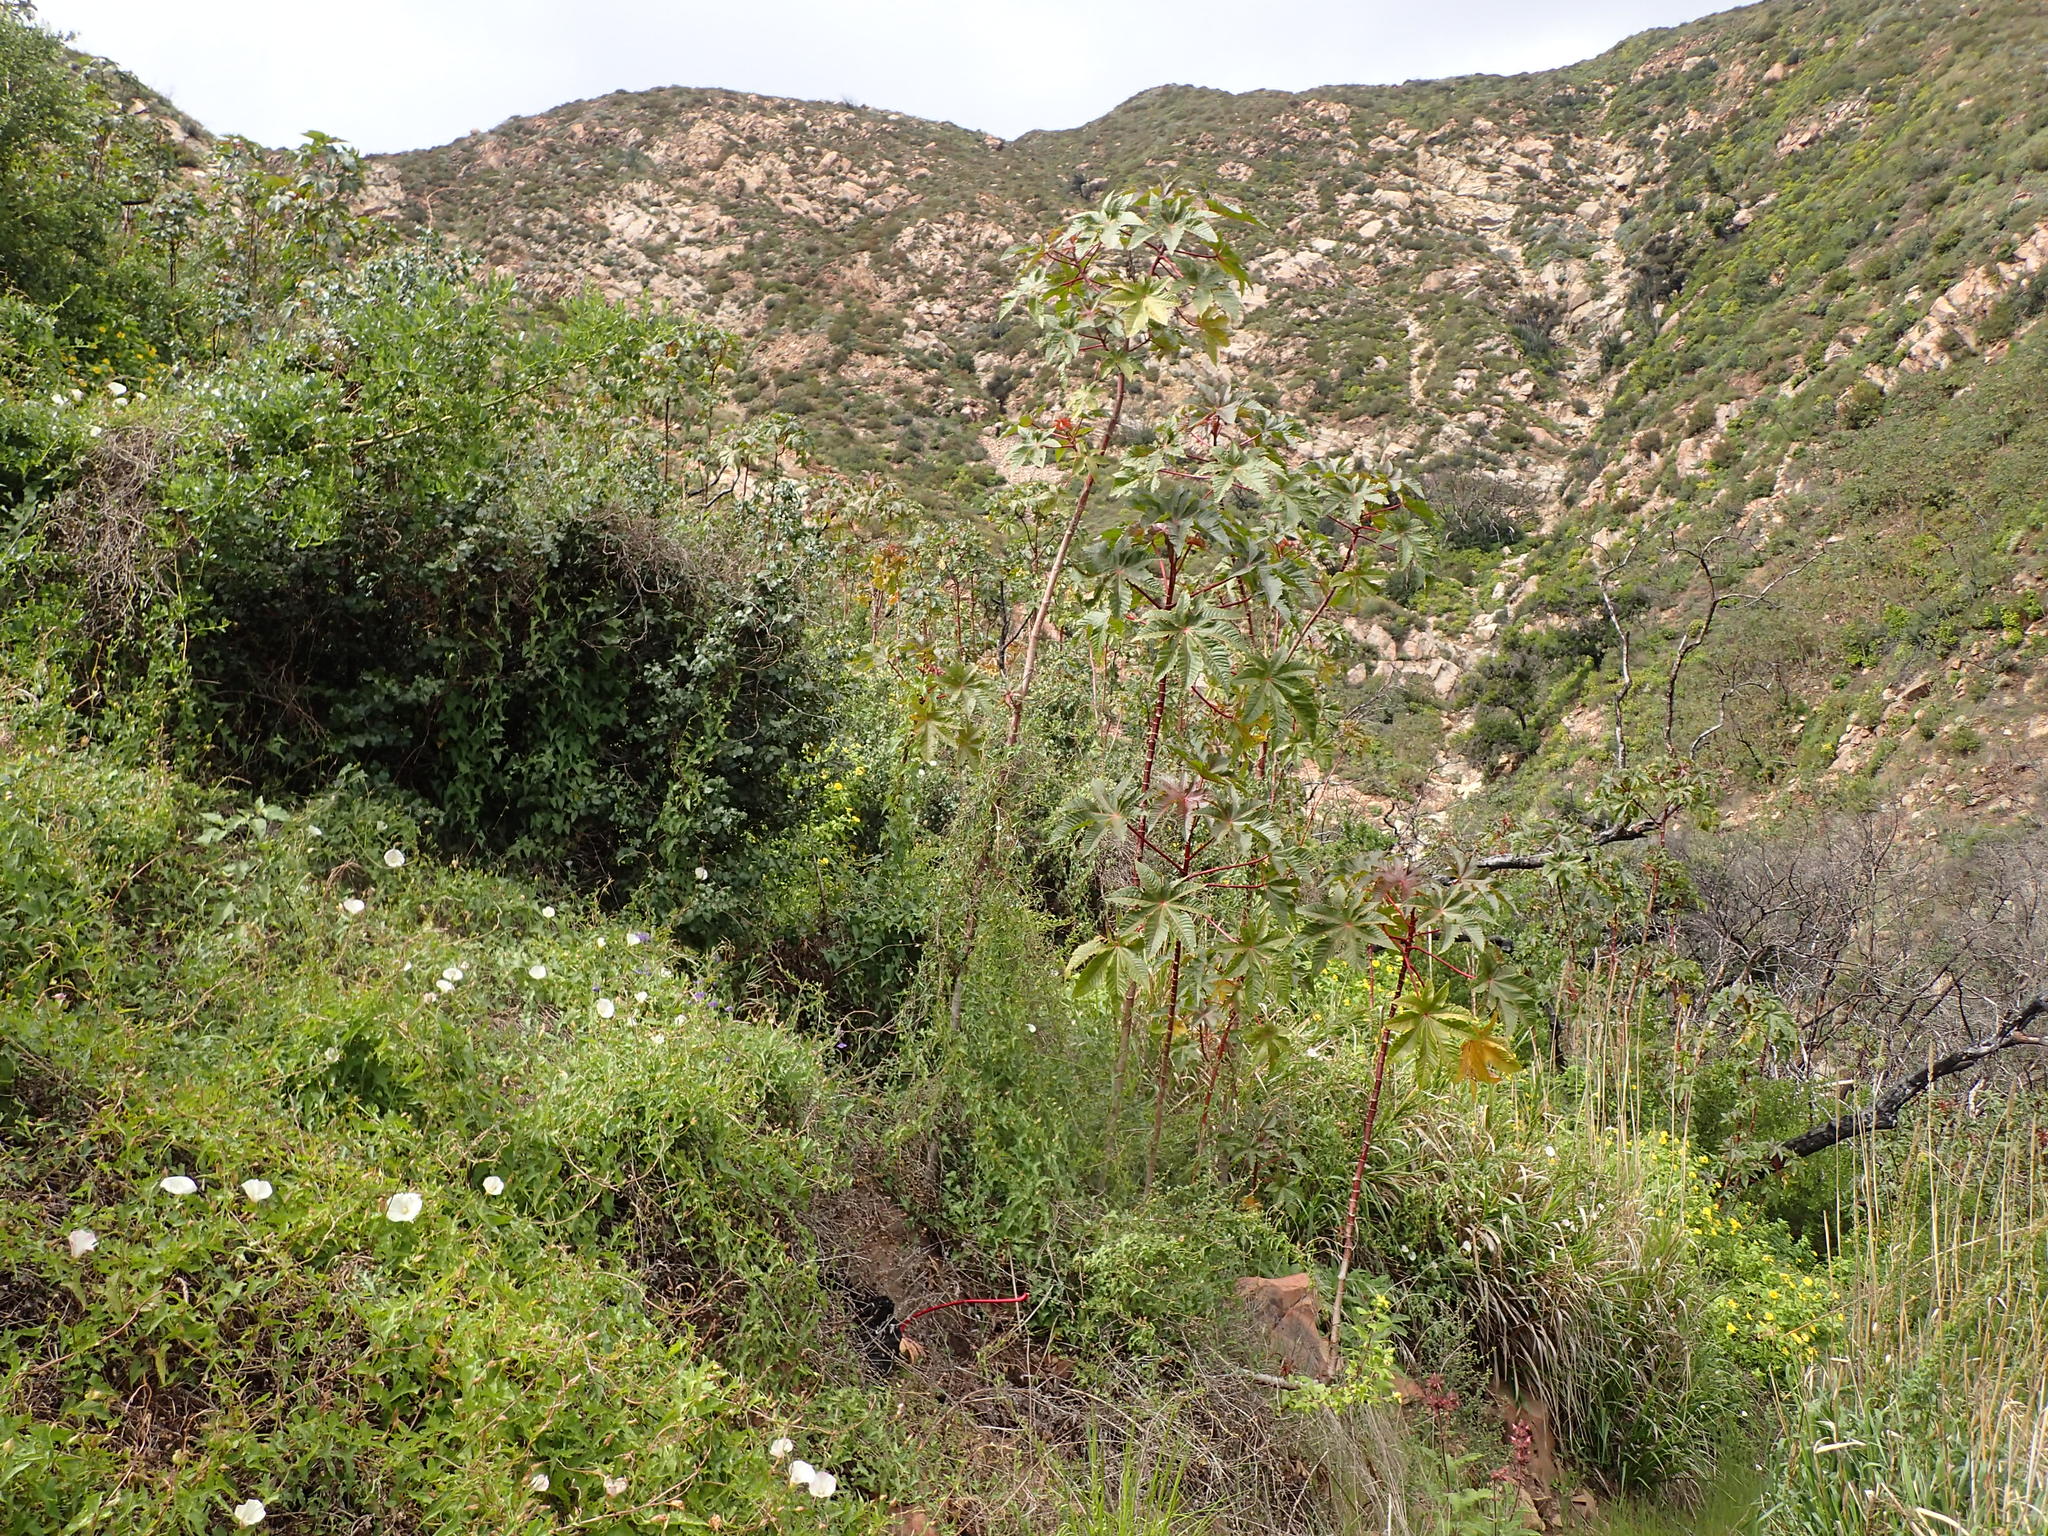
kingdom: Plantae
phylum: Tracheophyta
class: Magnoliopsida
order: Malpighiales
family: Euphorbiaceae
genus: Ricinus
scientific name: Ricinus communis
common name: Castor-oil-plant
